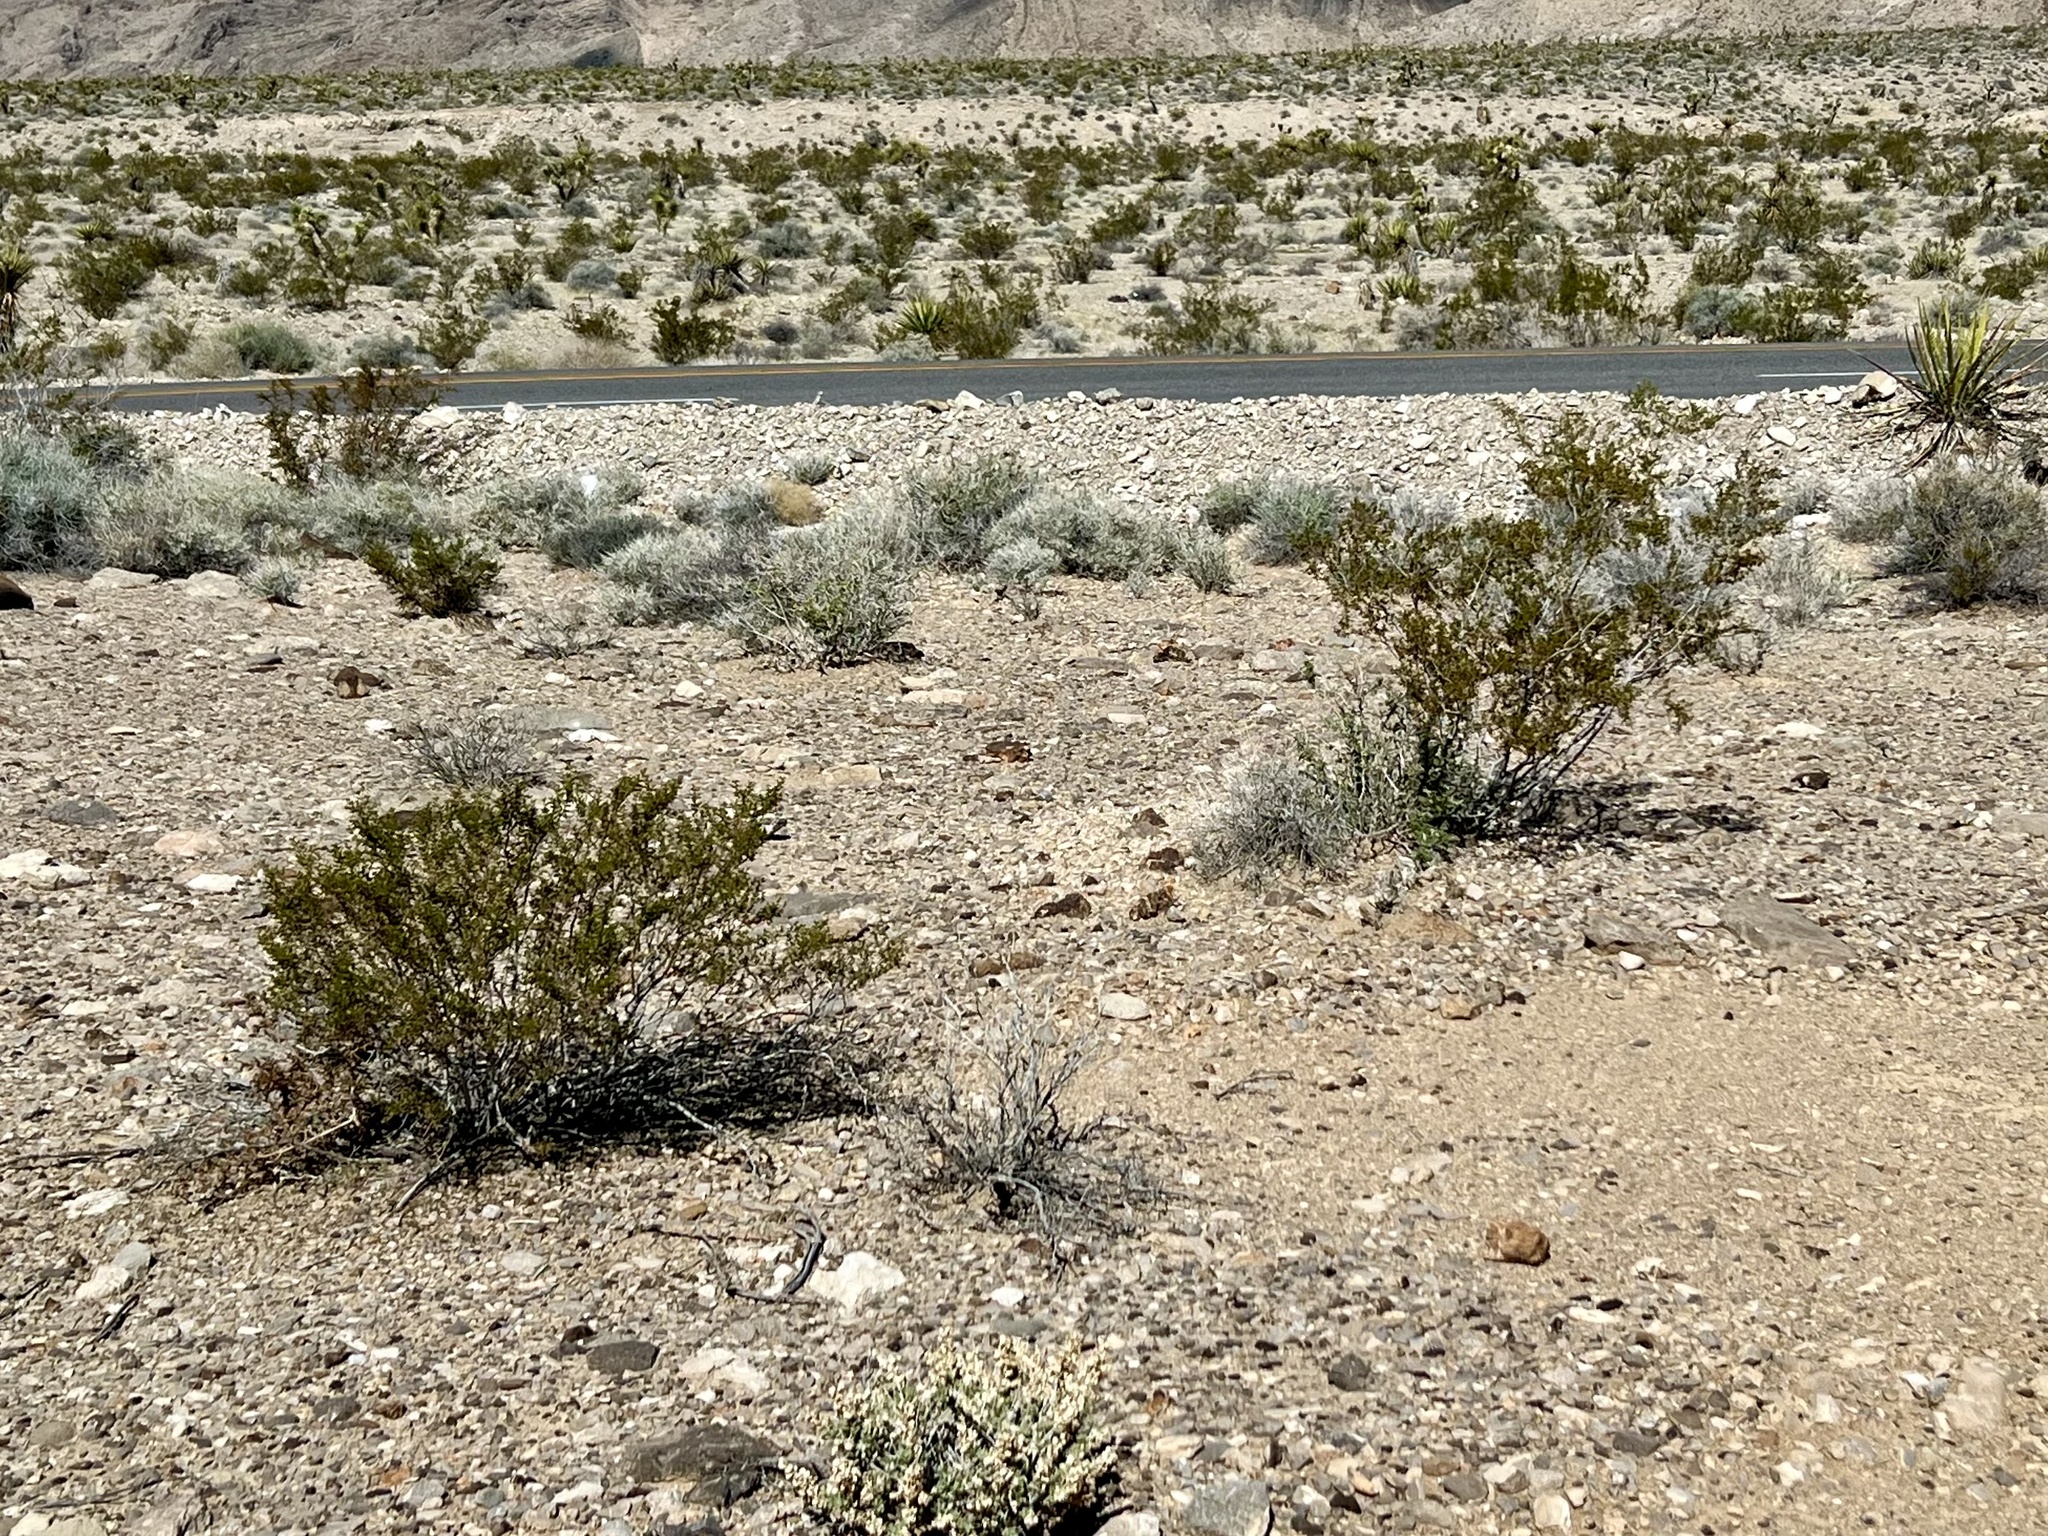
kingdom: Plantae
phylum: Tracheophyta
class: Magnoliopsida
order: Zygophyllales
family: Zygophyllaceae
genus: Larrea
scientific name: Larrea tridentata
